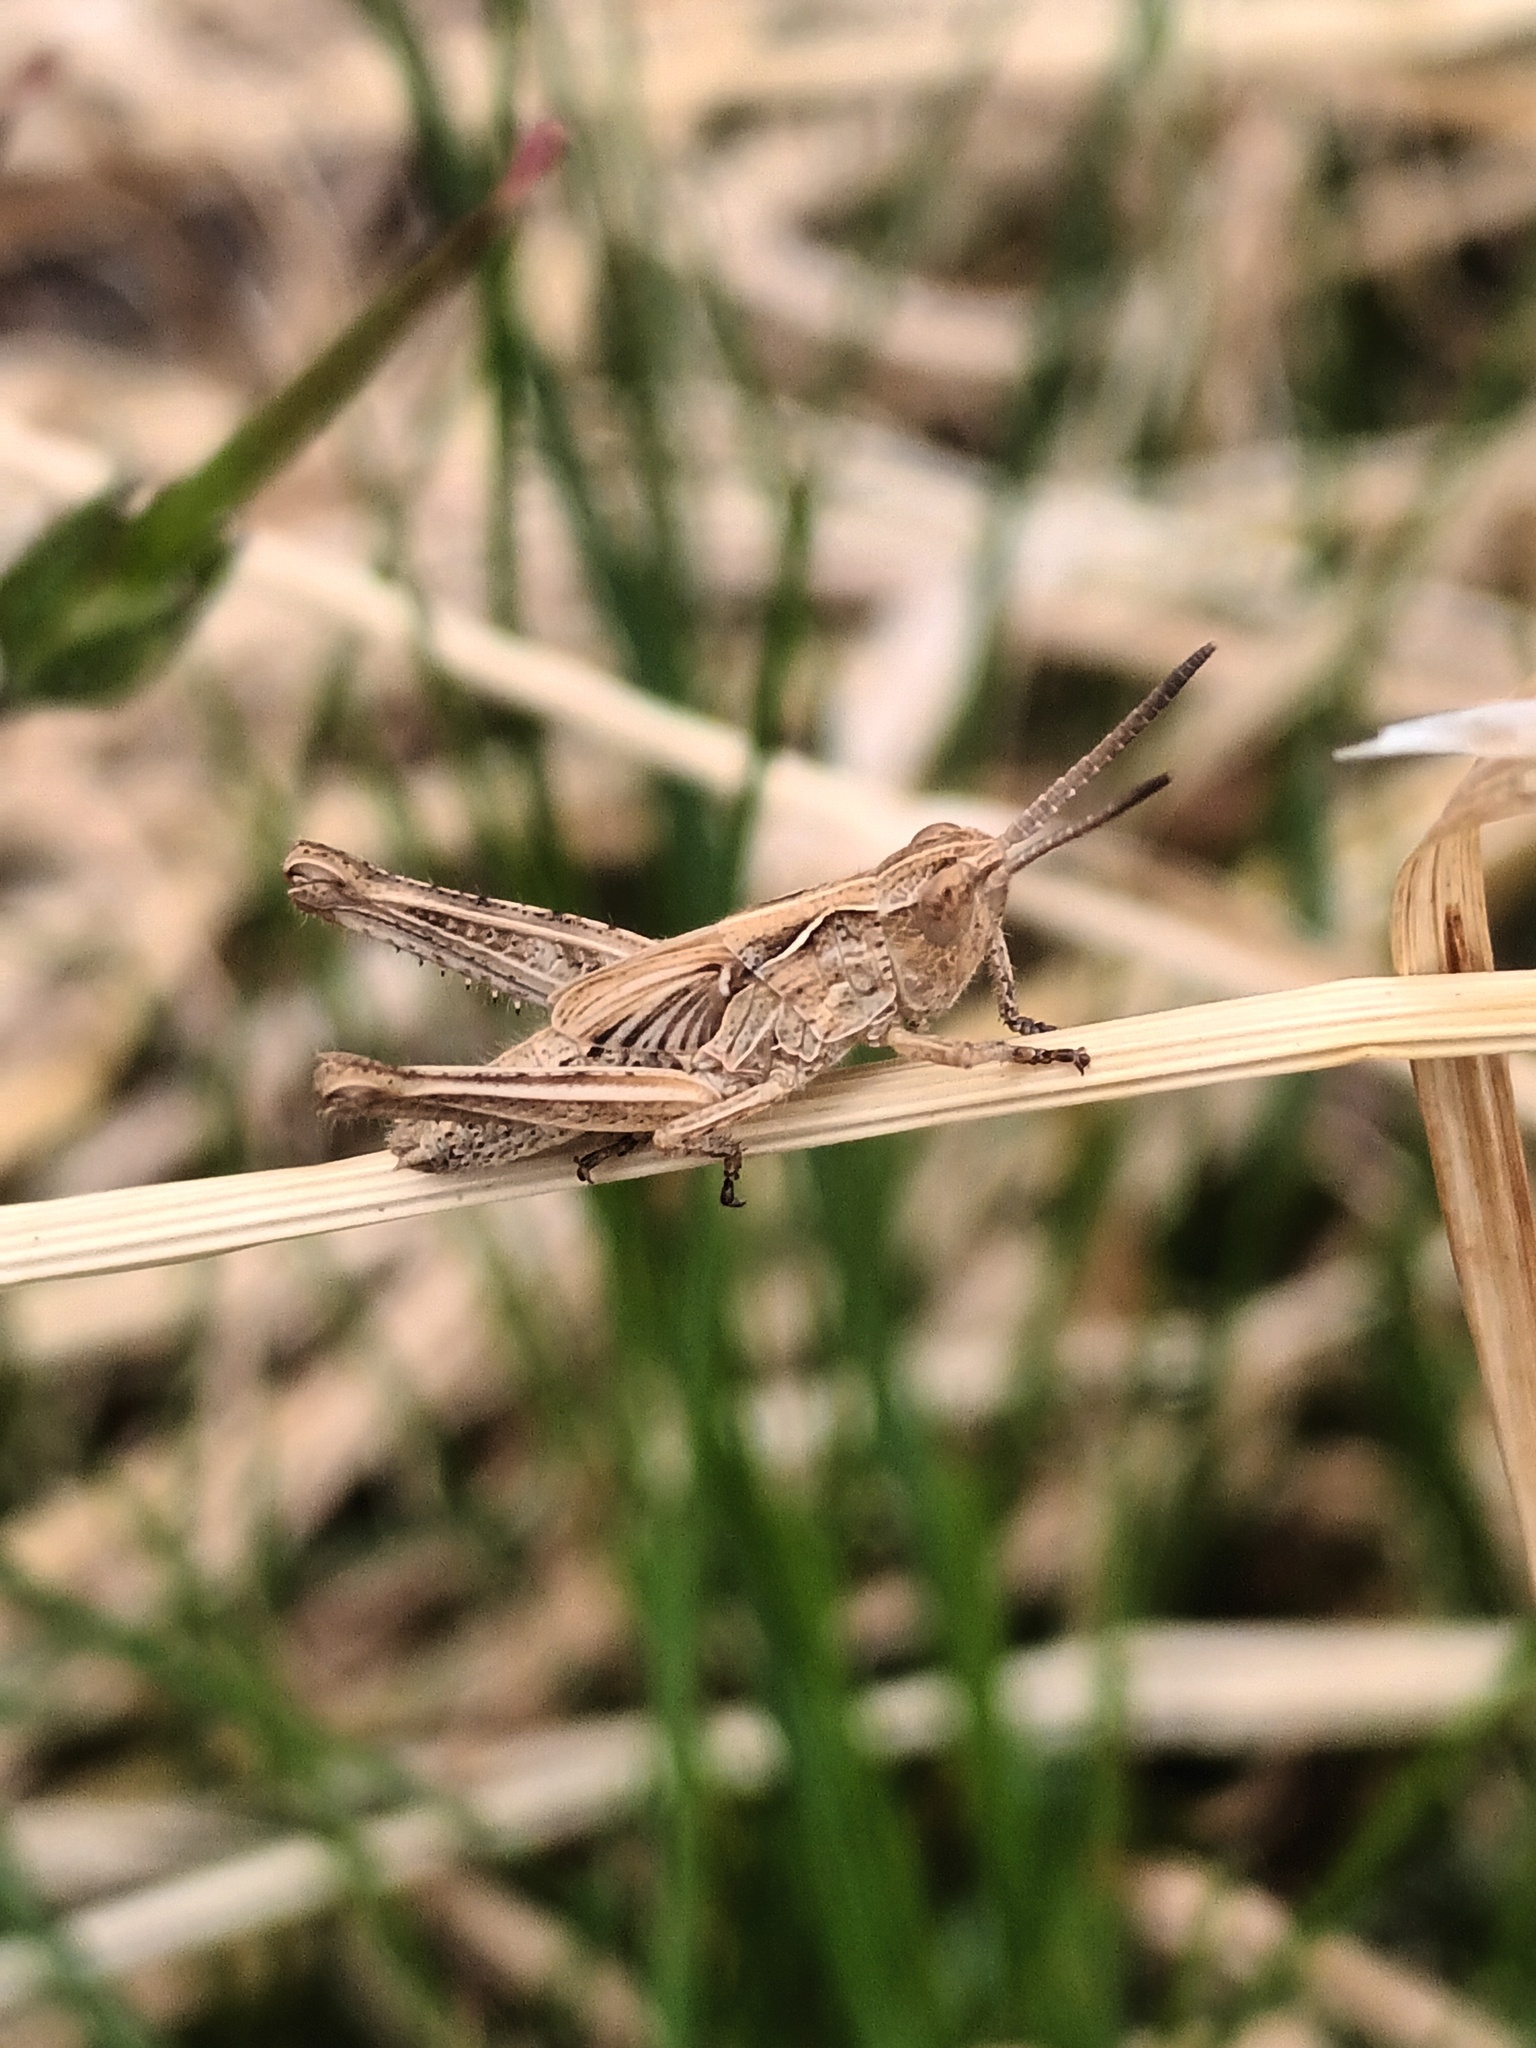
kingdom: Animalia
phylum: Arthropoda
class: Insecta
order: Orthoptera
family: Acrididae
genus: Chorthippus
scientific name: Chorthippus brunneus
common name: Field grasshopper
